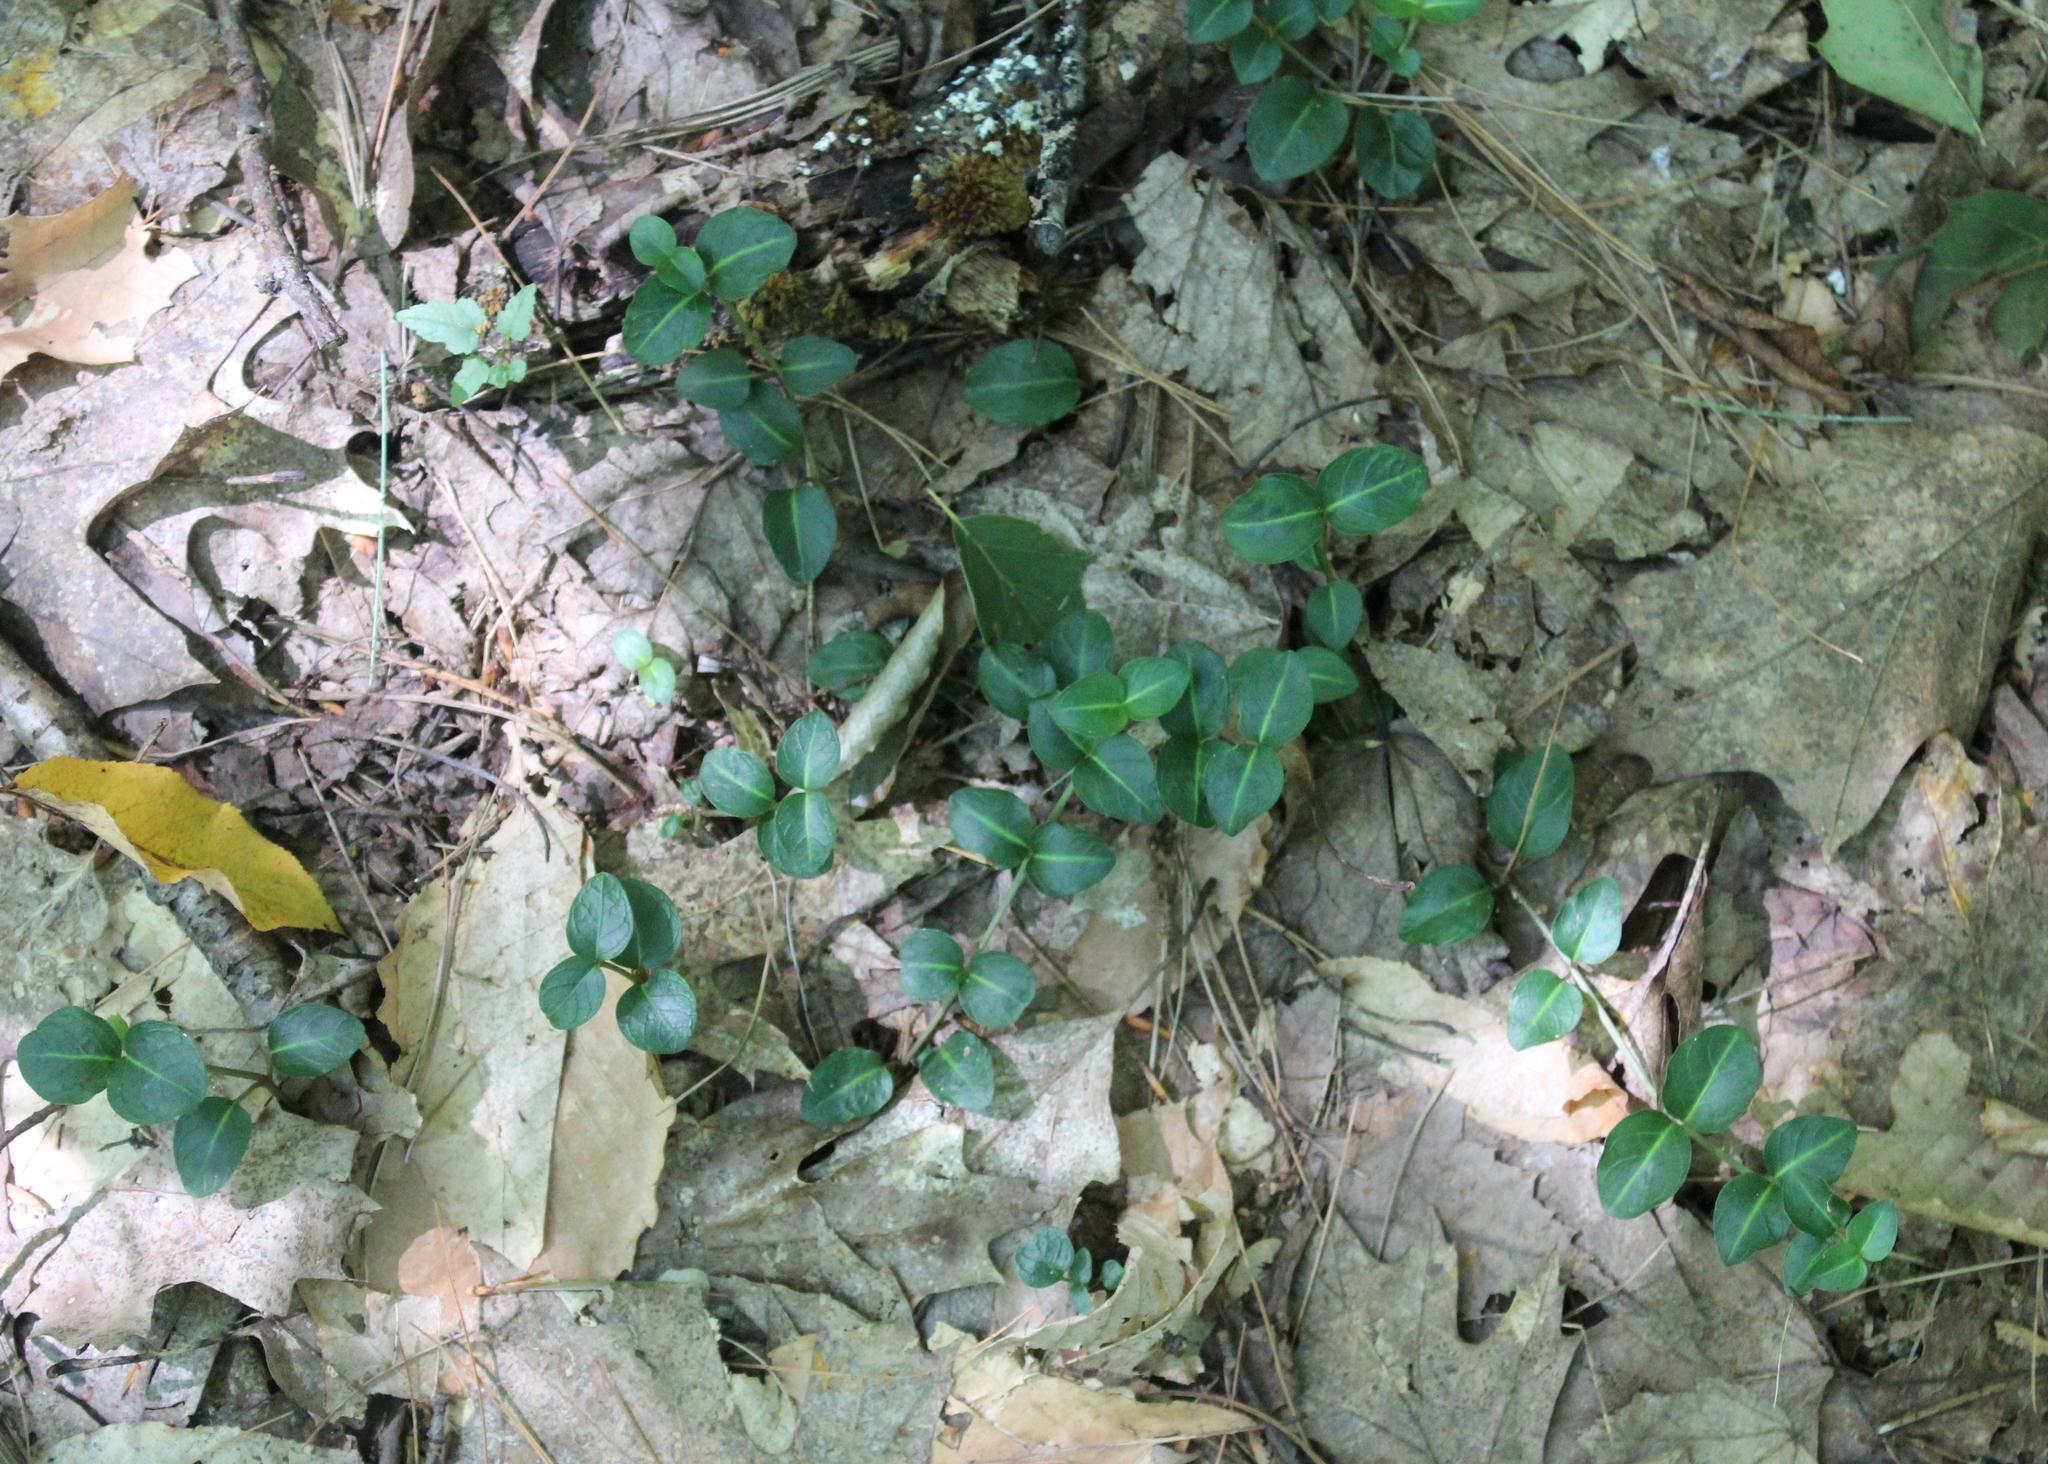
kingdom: Plantae
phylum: Tracheophyta
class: Magnoliopsida
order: Gentianales
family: Rubiaceae
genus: Mitchella
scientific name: Mitchella repens
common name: Partridge-berry
